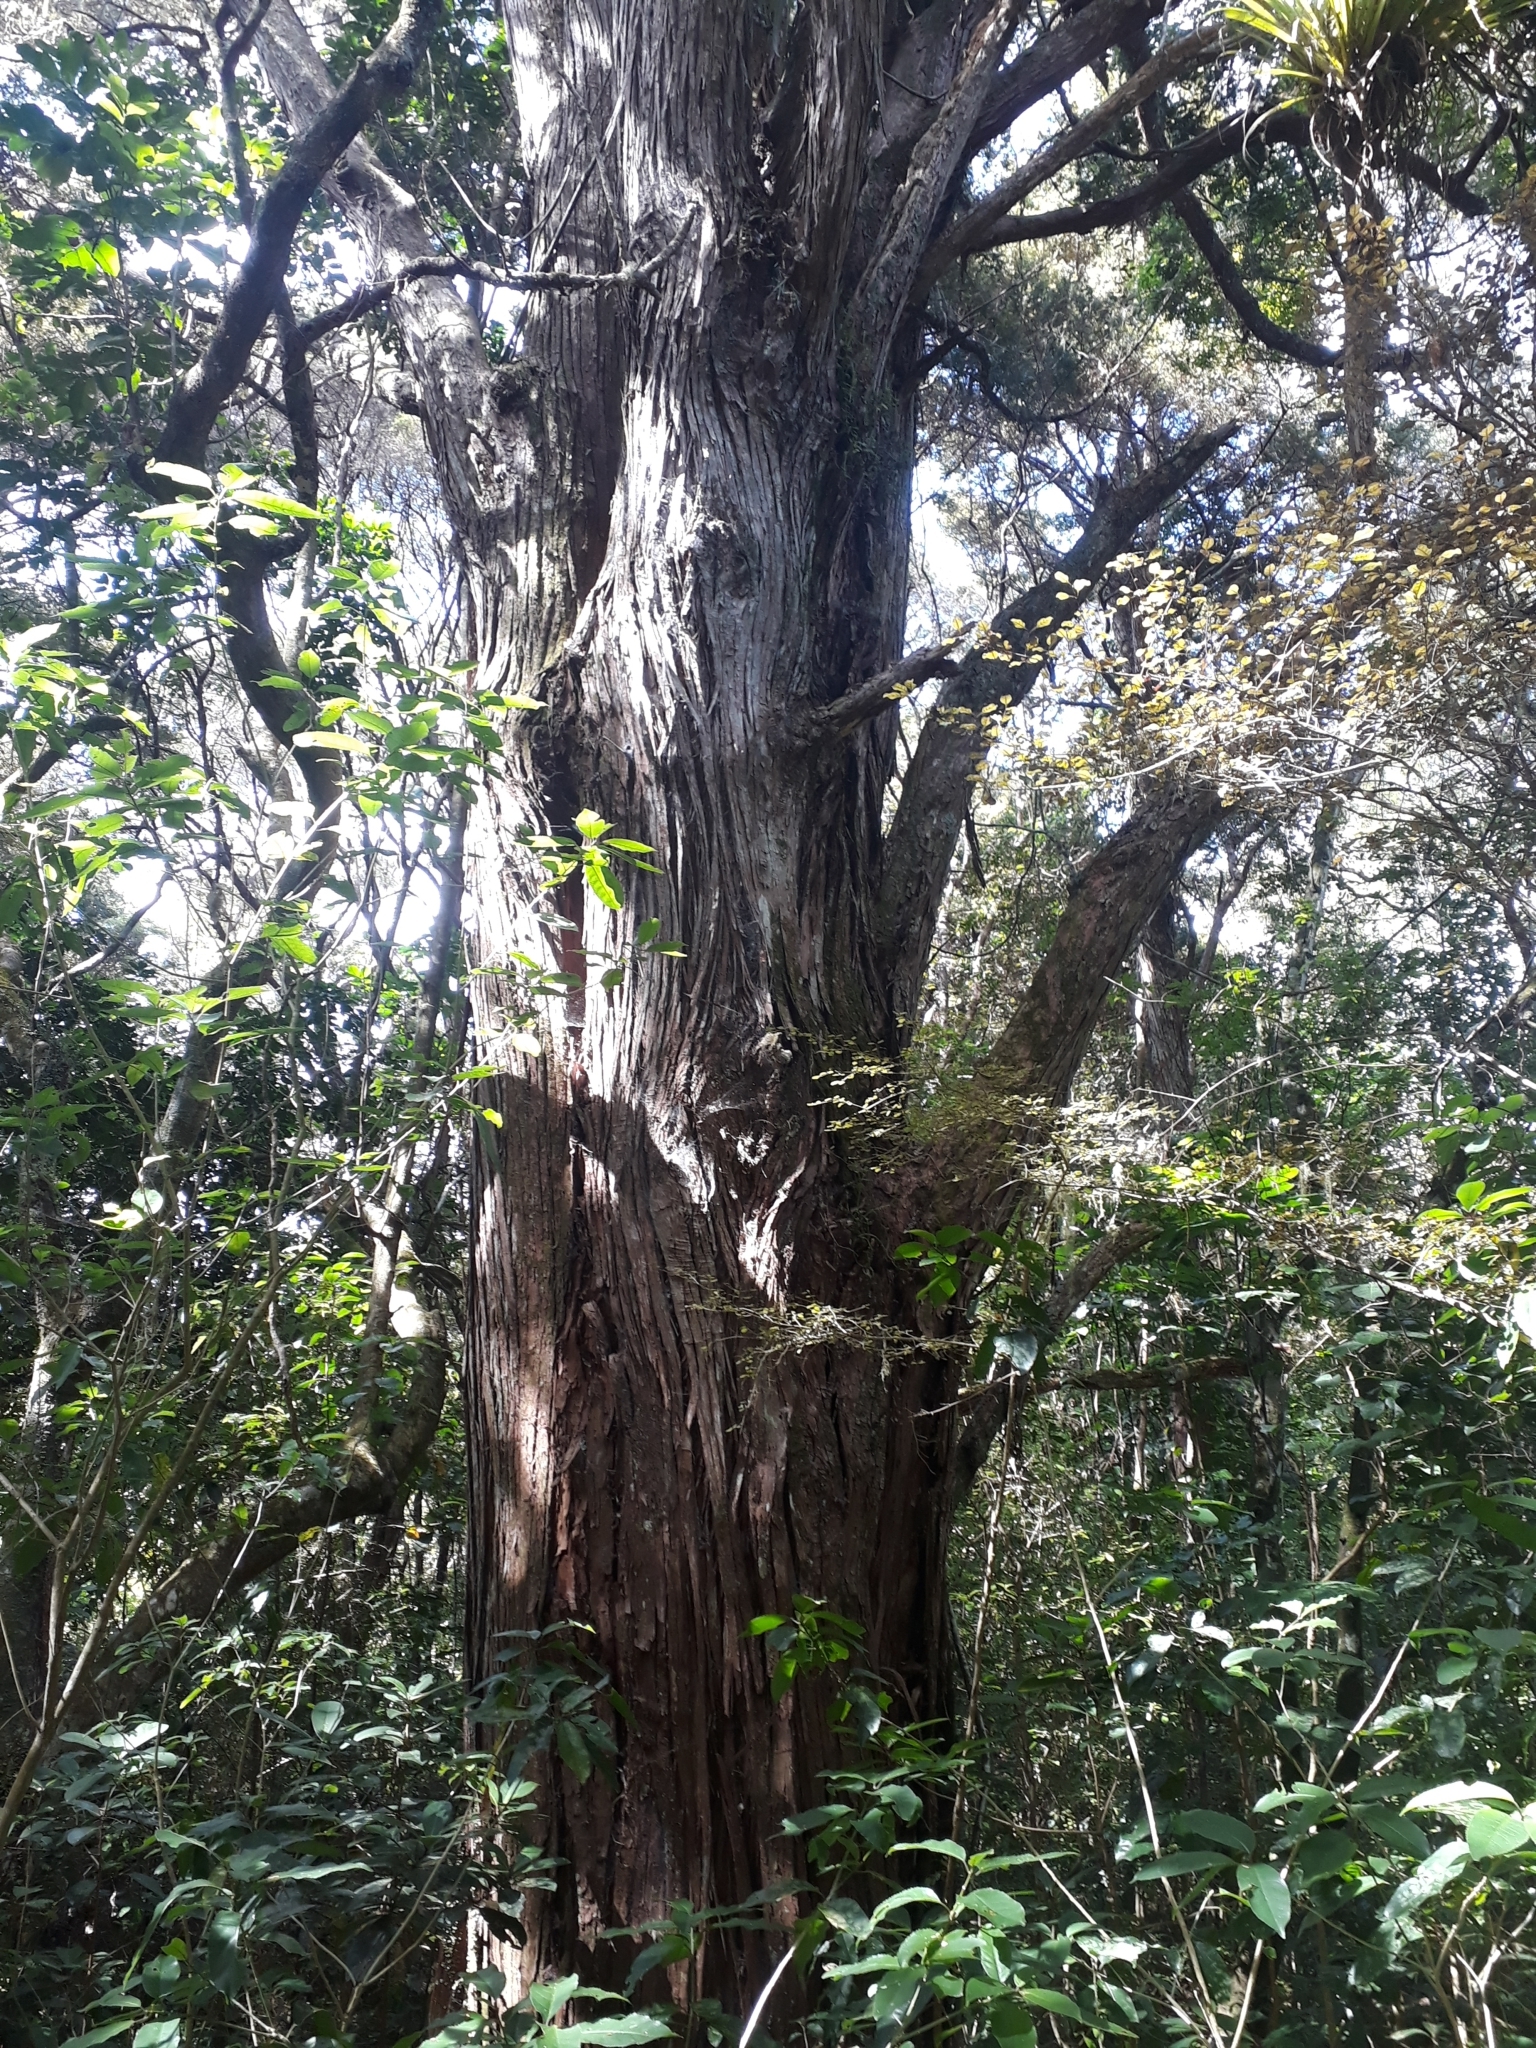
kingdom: Plantae
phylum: Tracheophyta
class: Pinopsida
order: Pinales
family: Podocarpaceae
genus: Podocarpus
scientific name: Podocarpus totara
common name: Totara
